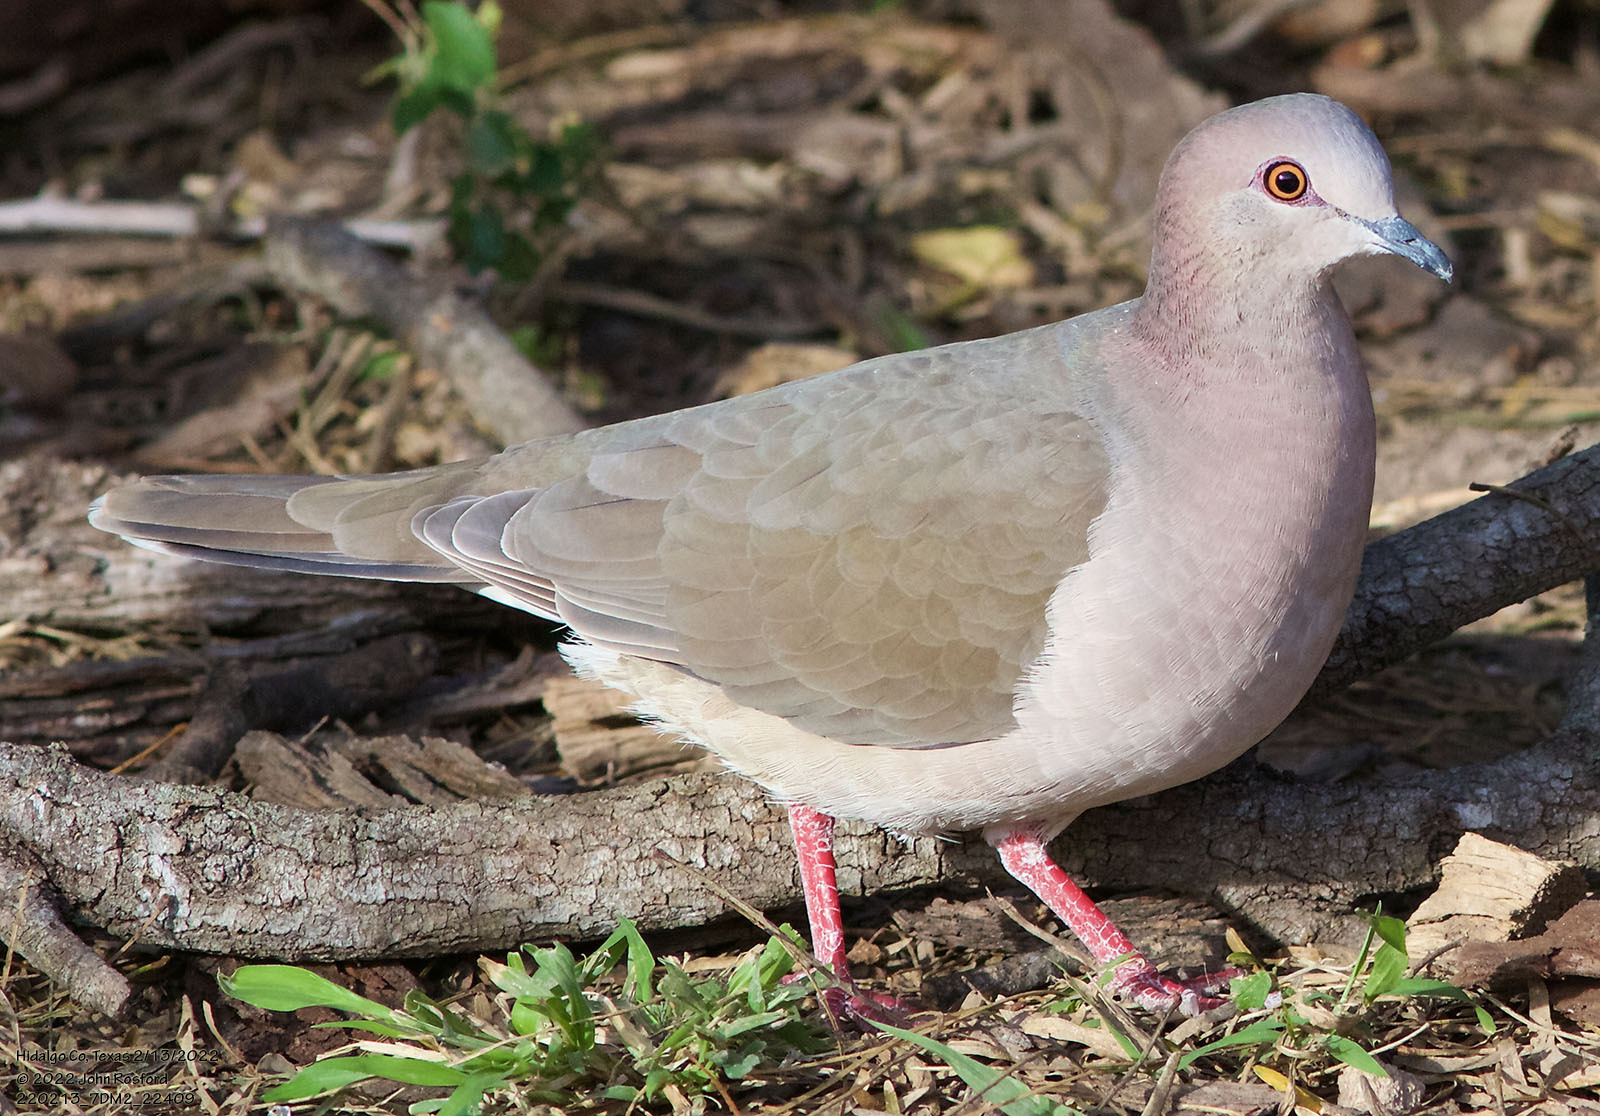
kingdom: Animalia
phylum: Chordata
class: Aves
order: Columbiformes
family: Columbidae
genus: Leptotila
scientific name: Leptotila verreauxi
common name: White-tipped dove
